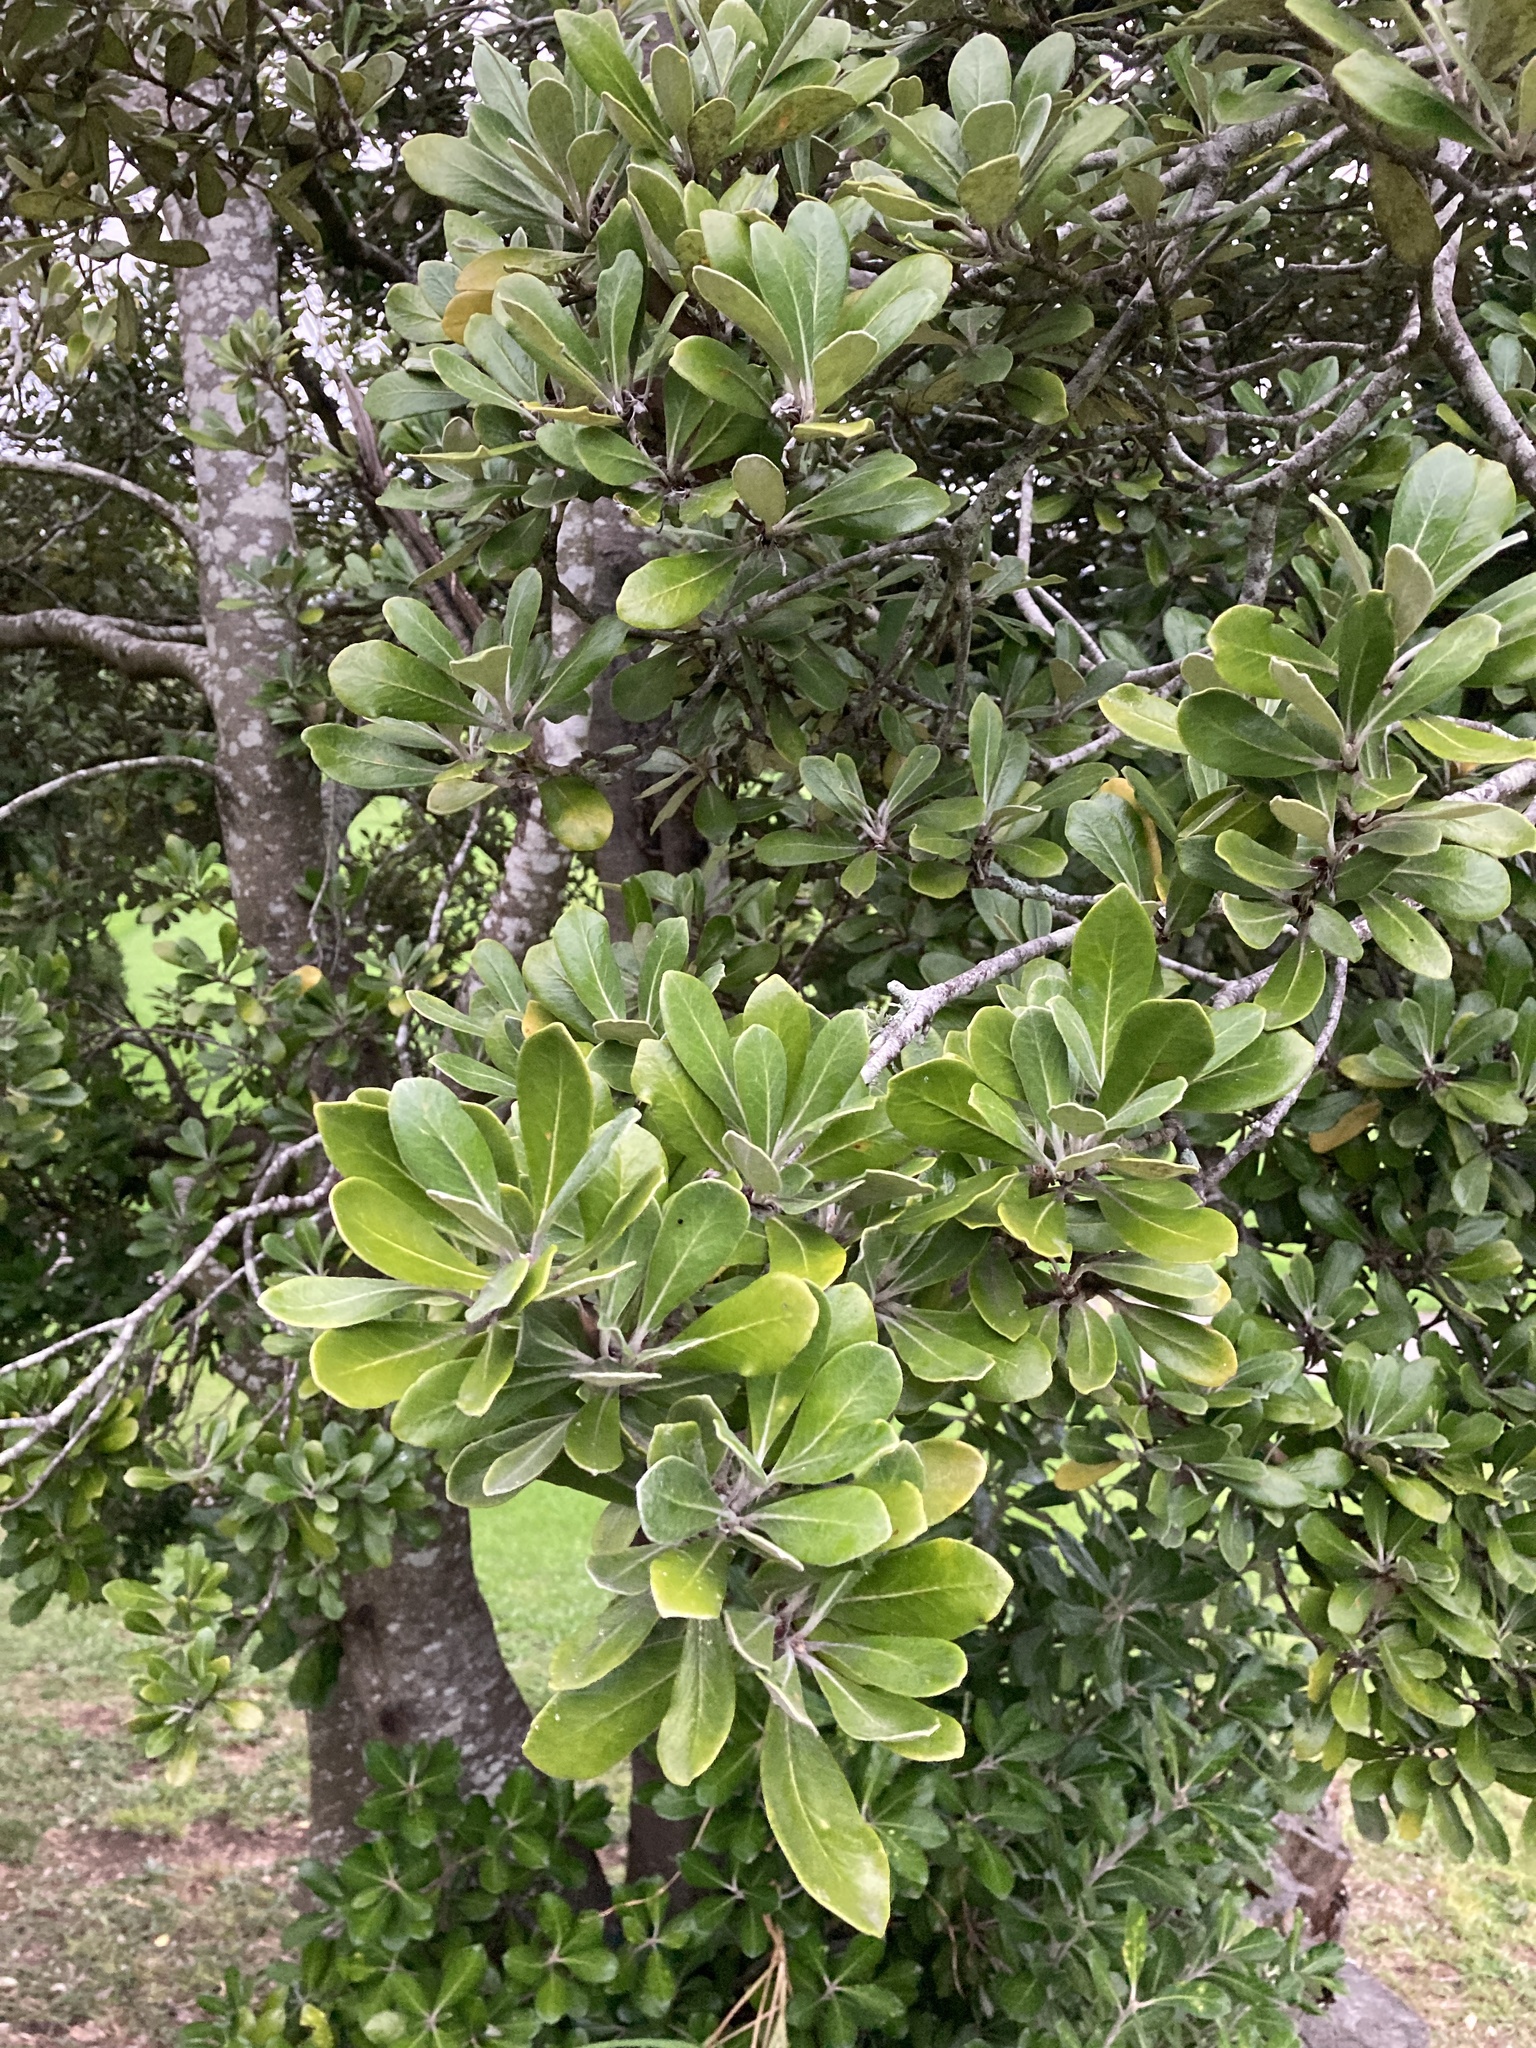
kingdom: Plantae
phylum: Tracheophyta
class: Magnoliopsida
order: Apiales
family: Pittosporaceae
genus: Pittosporum
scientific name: Pittosporum crassifolium
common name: Karo
